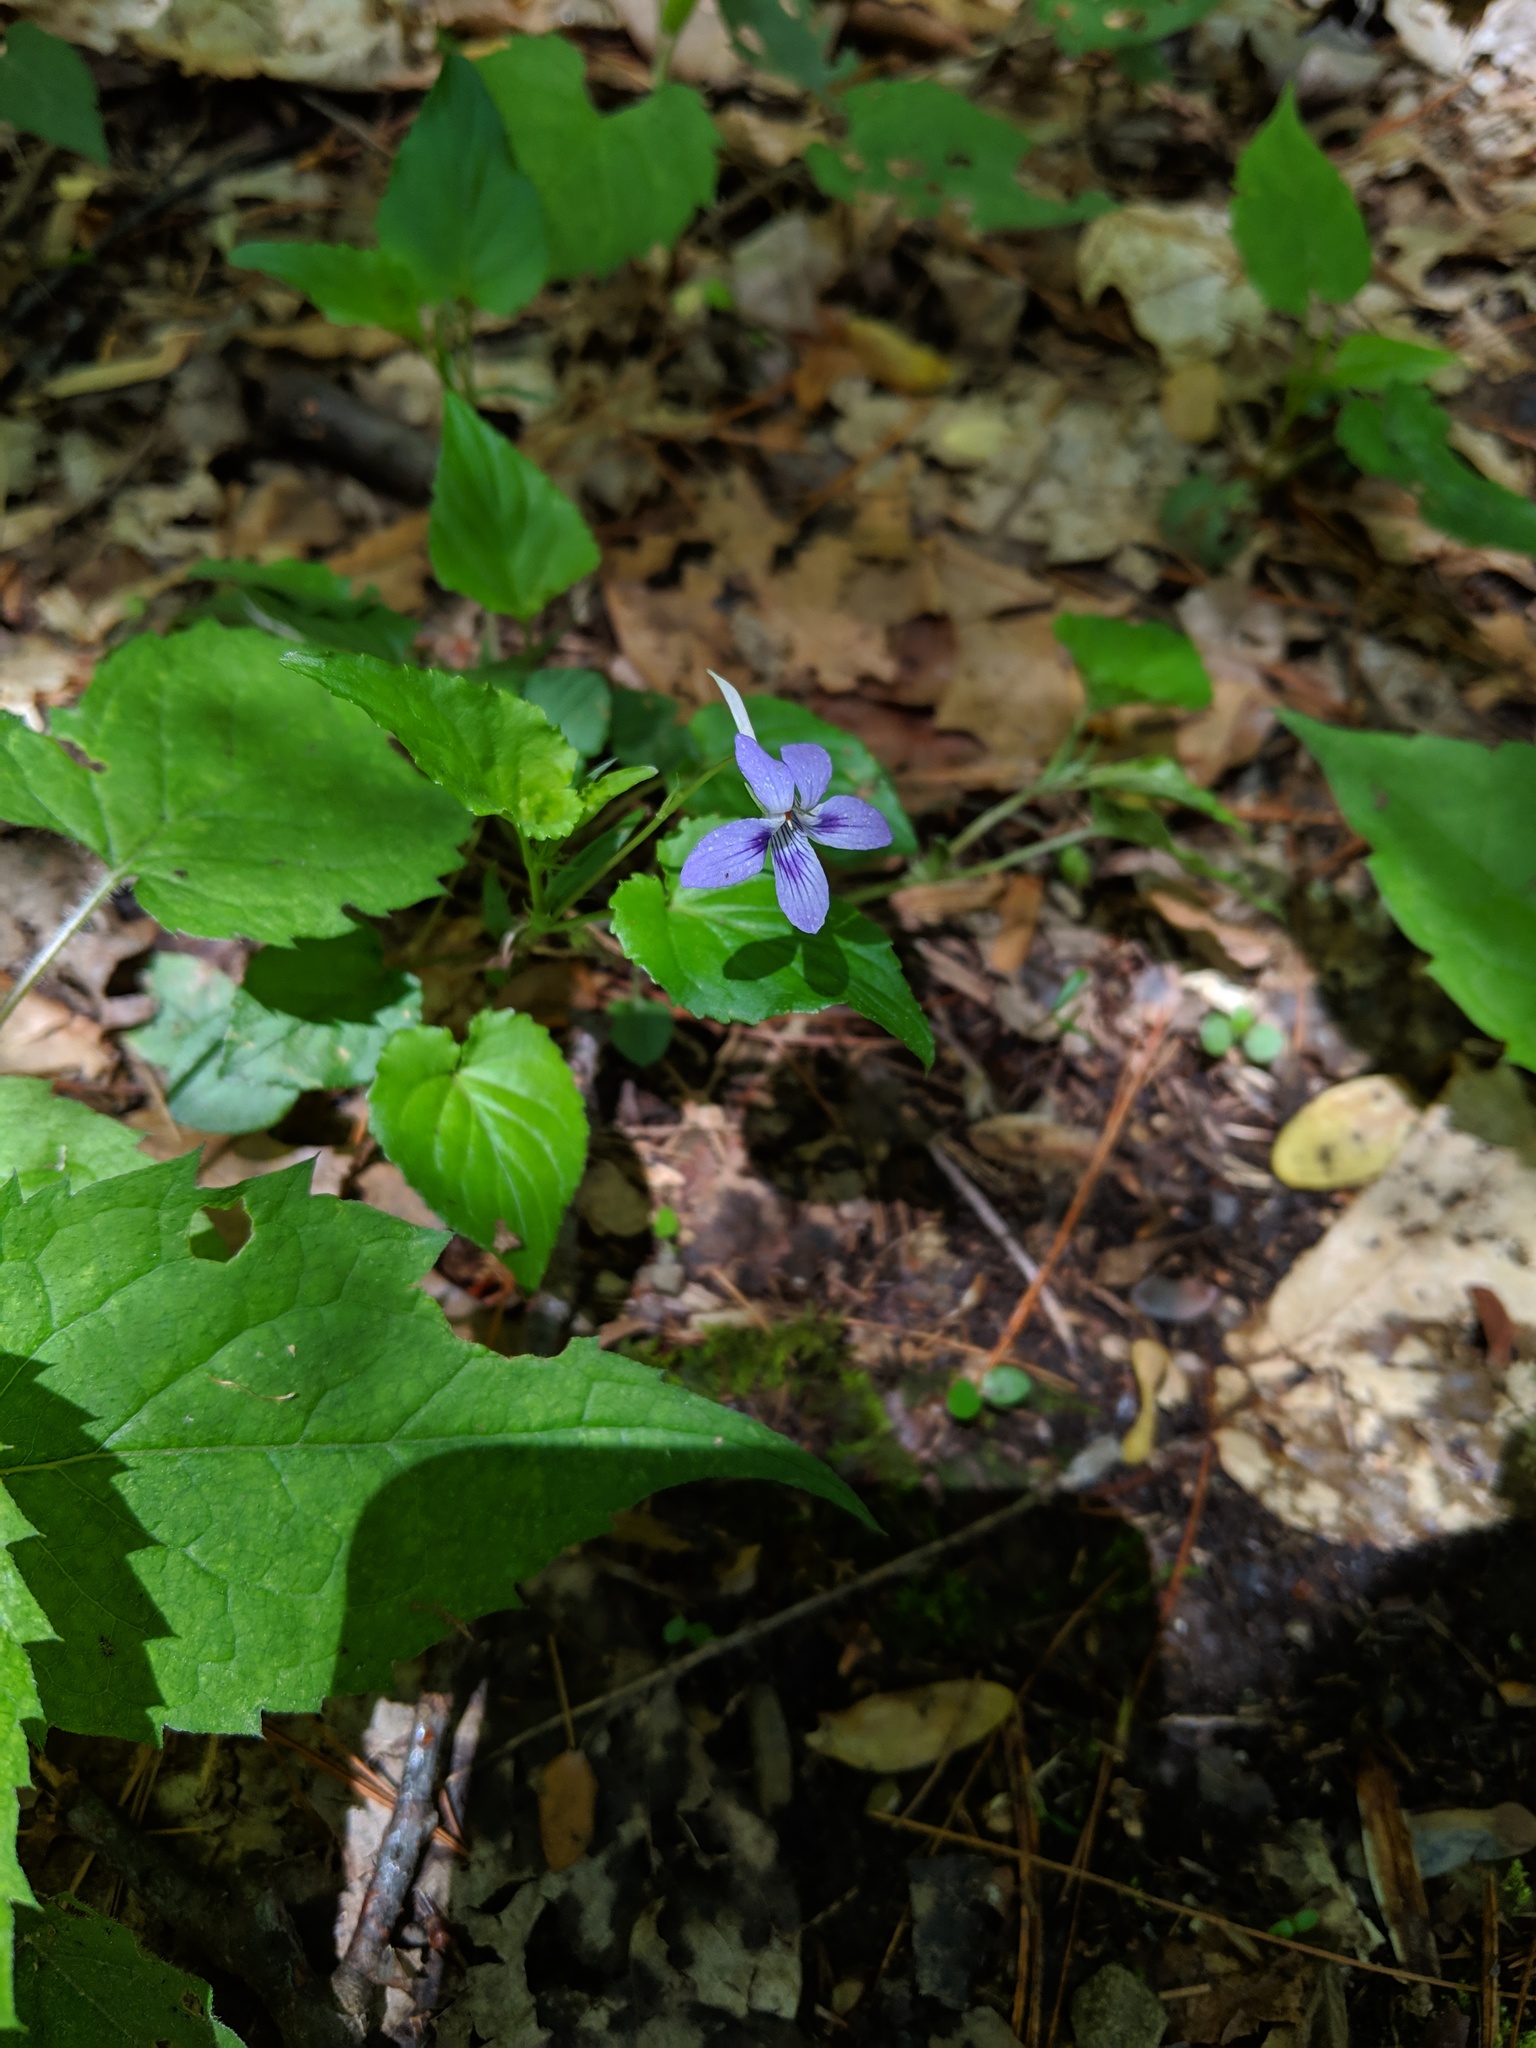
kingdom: Plantae
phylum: Tracheophyta
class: Magnoliopsida
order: Malpighiales
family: Violaceae
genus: Viola
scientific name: Viola cucullata
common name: Marsh blue violet
